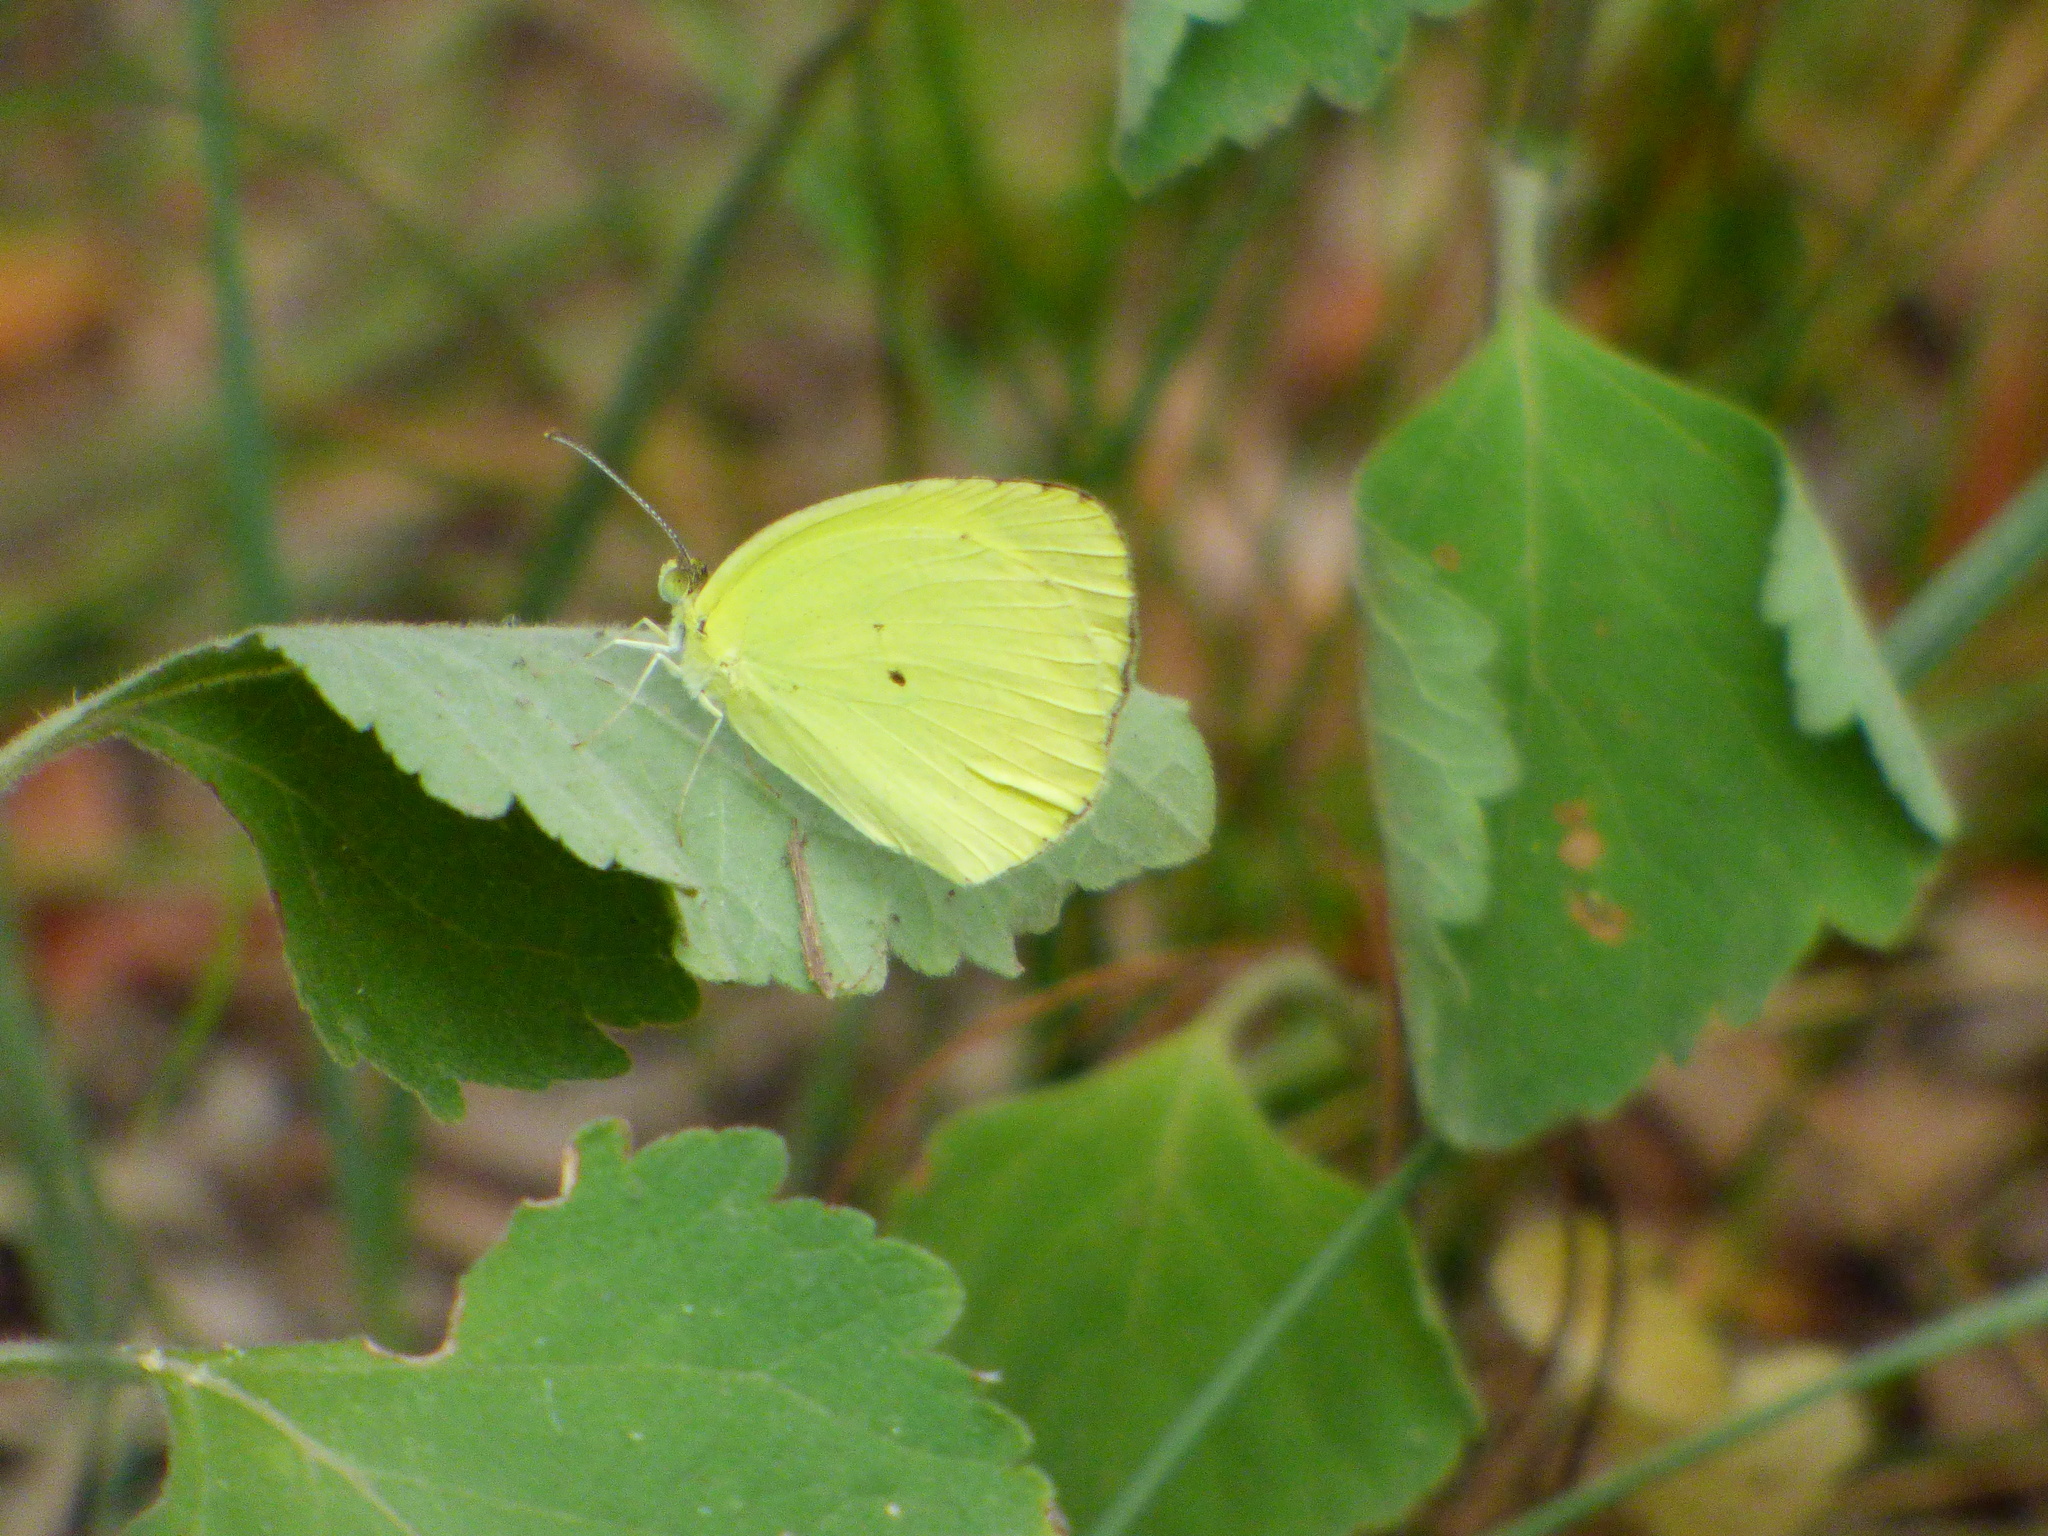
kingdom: Animalia
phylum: Arthropoda
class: Insecta
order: Lepidoptera
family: Pieridae
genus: Pyrisitia
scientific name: Pyrisitia nise
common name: Mimosa yellow
